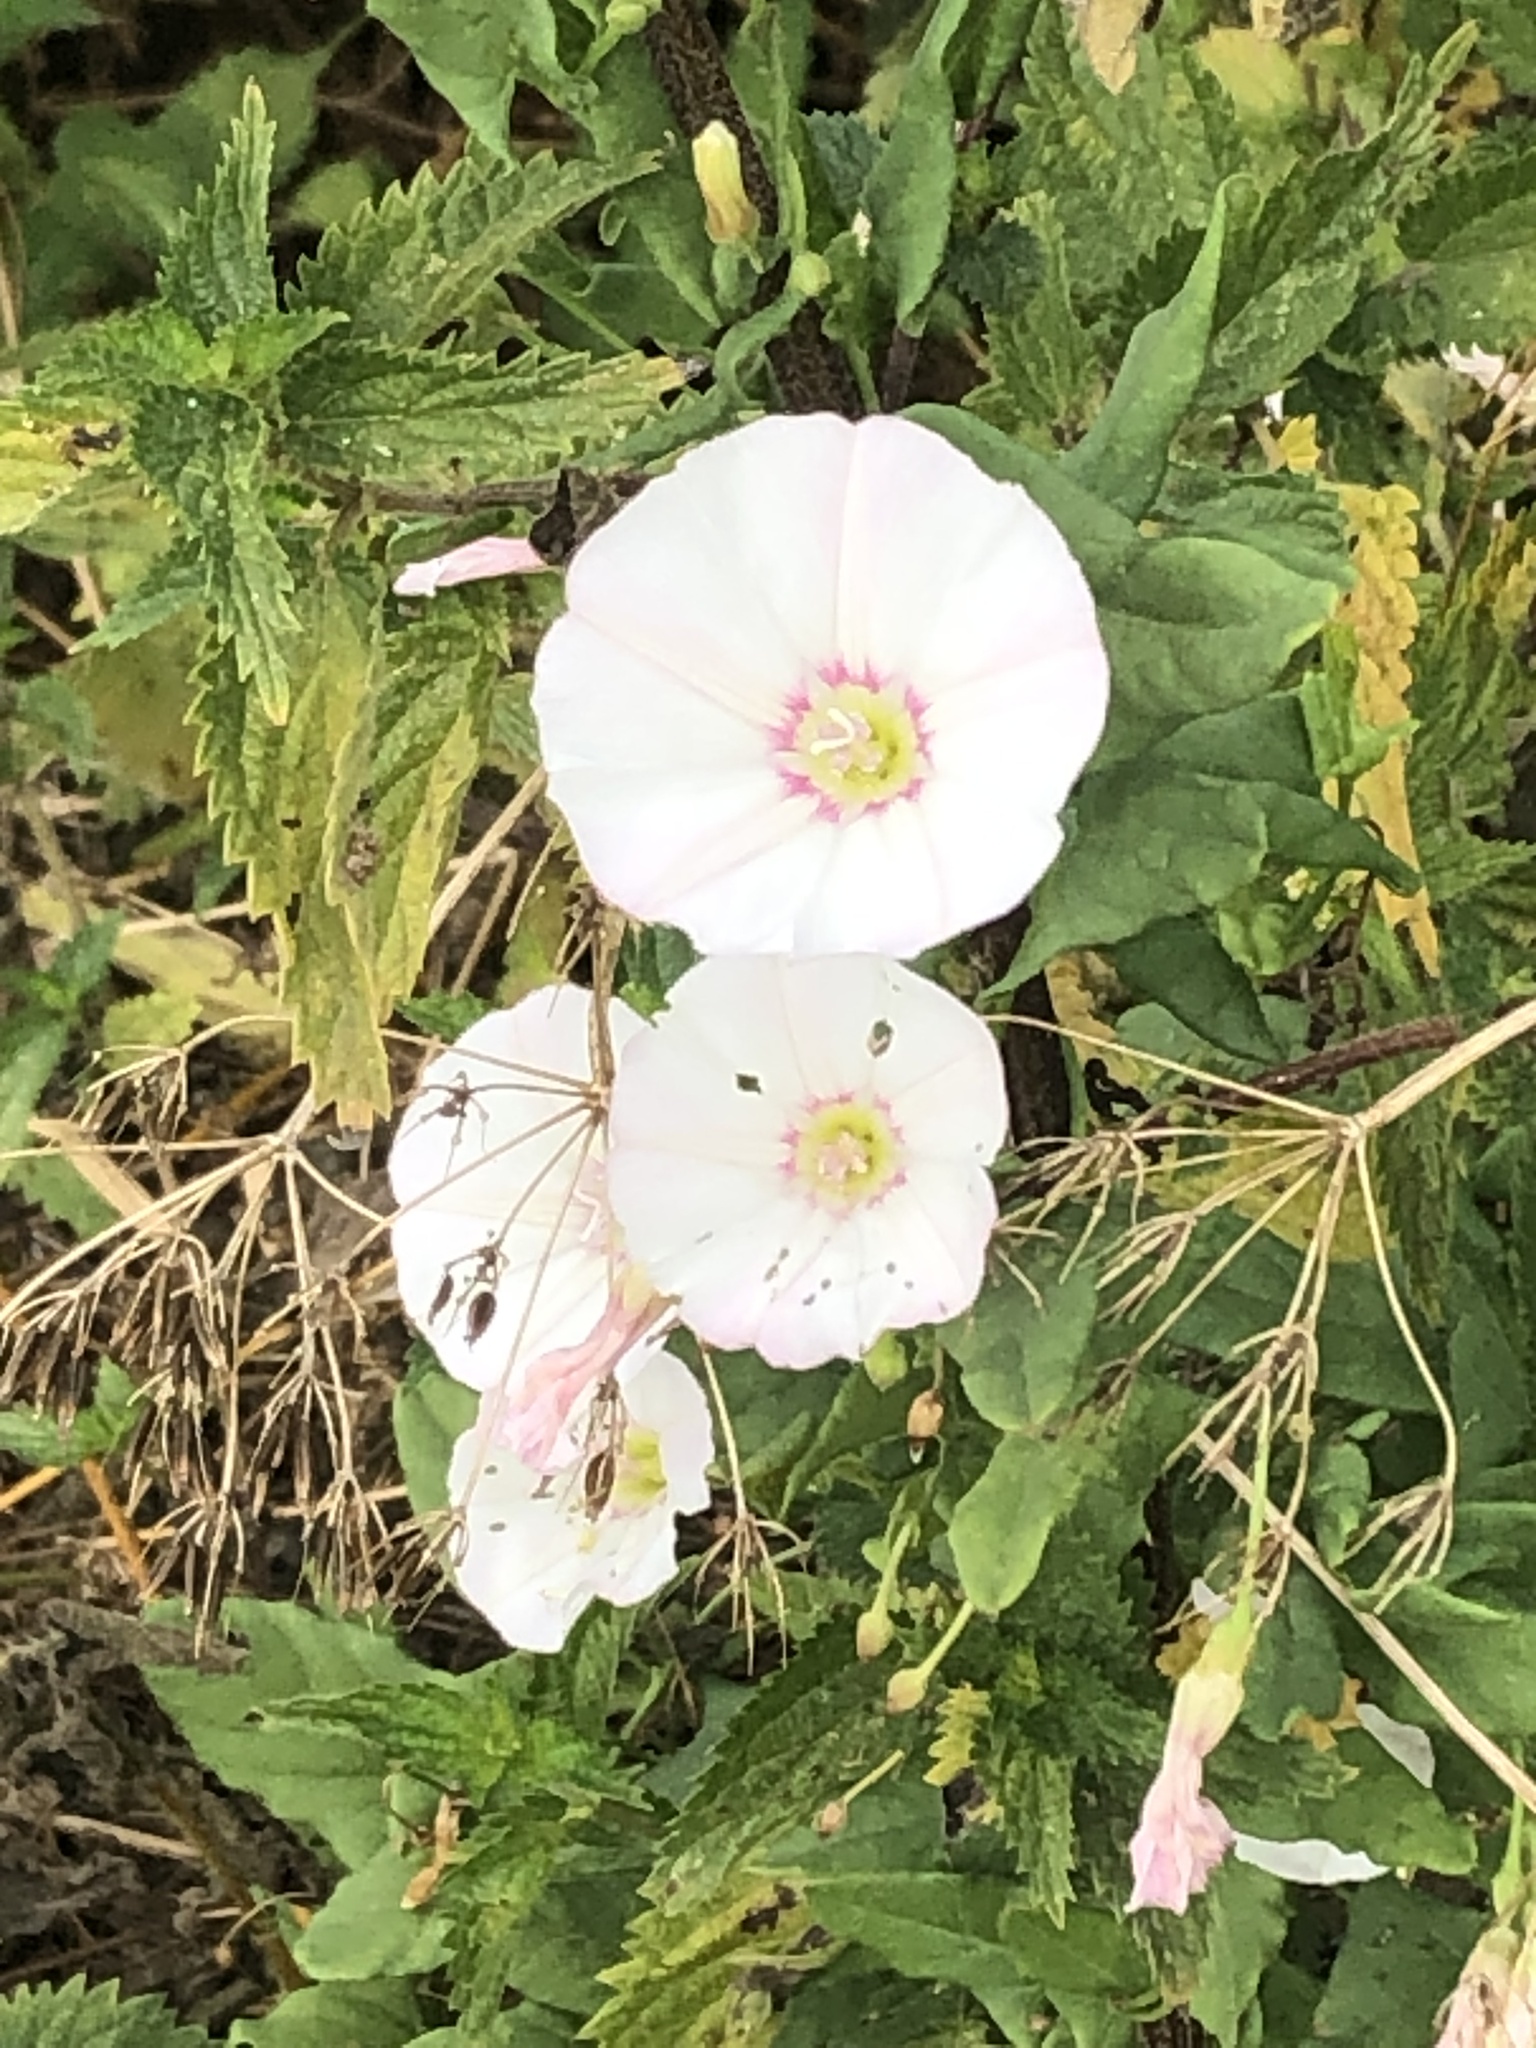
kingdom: Plantae
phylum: Tracheophyta
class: Magnoliopsida
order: Solanales
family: Convolvulaceae
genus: Convolvulus
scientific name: Convolvulus arvensis
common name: Field bindweed
